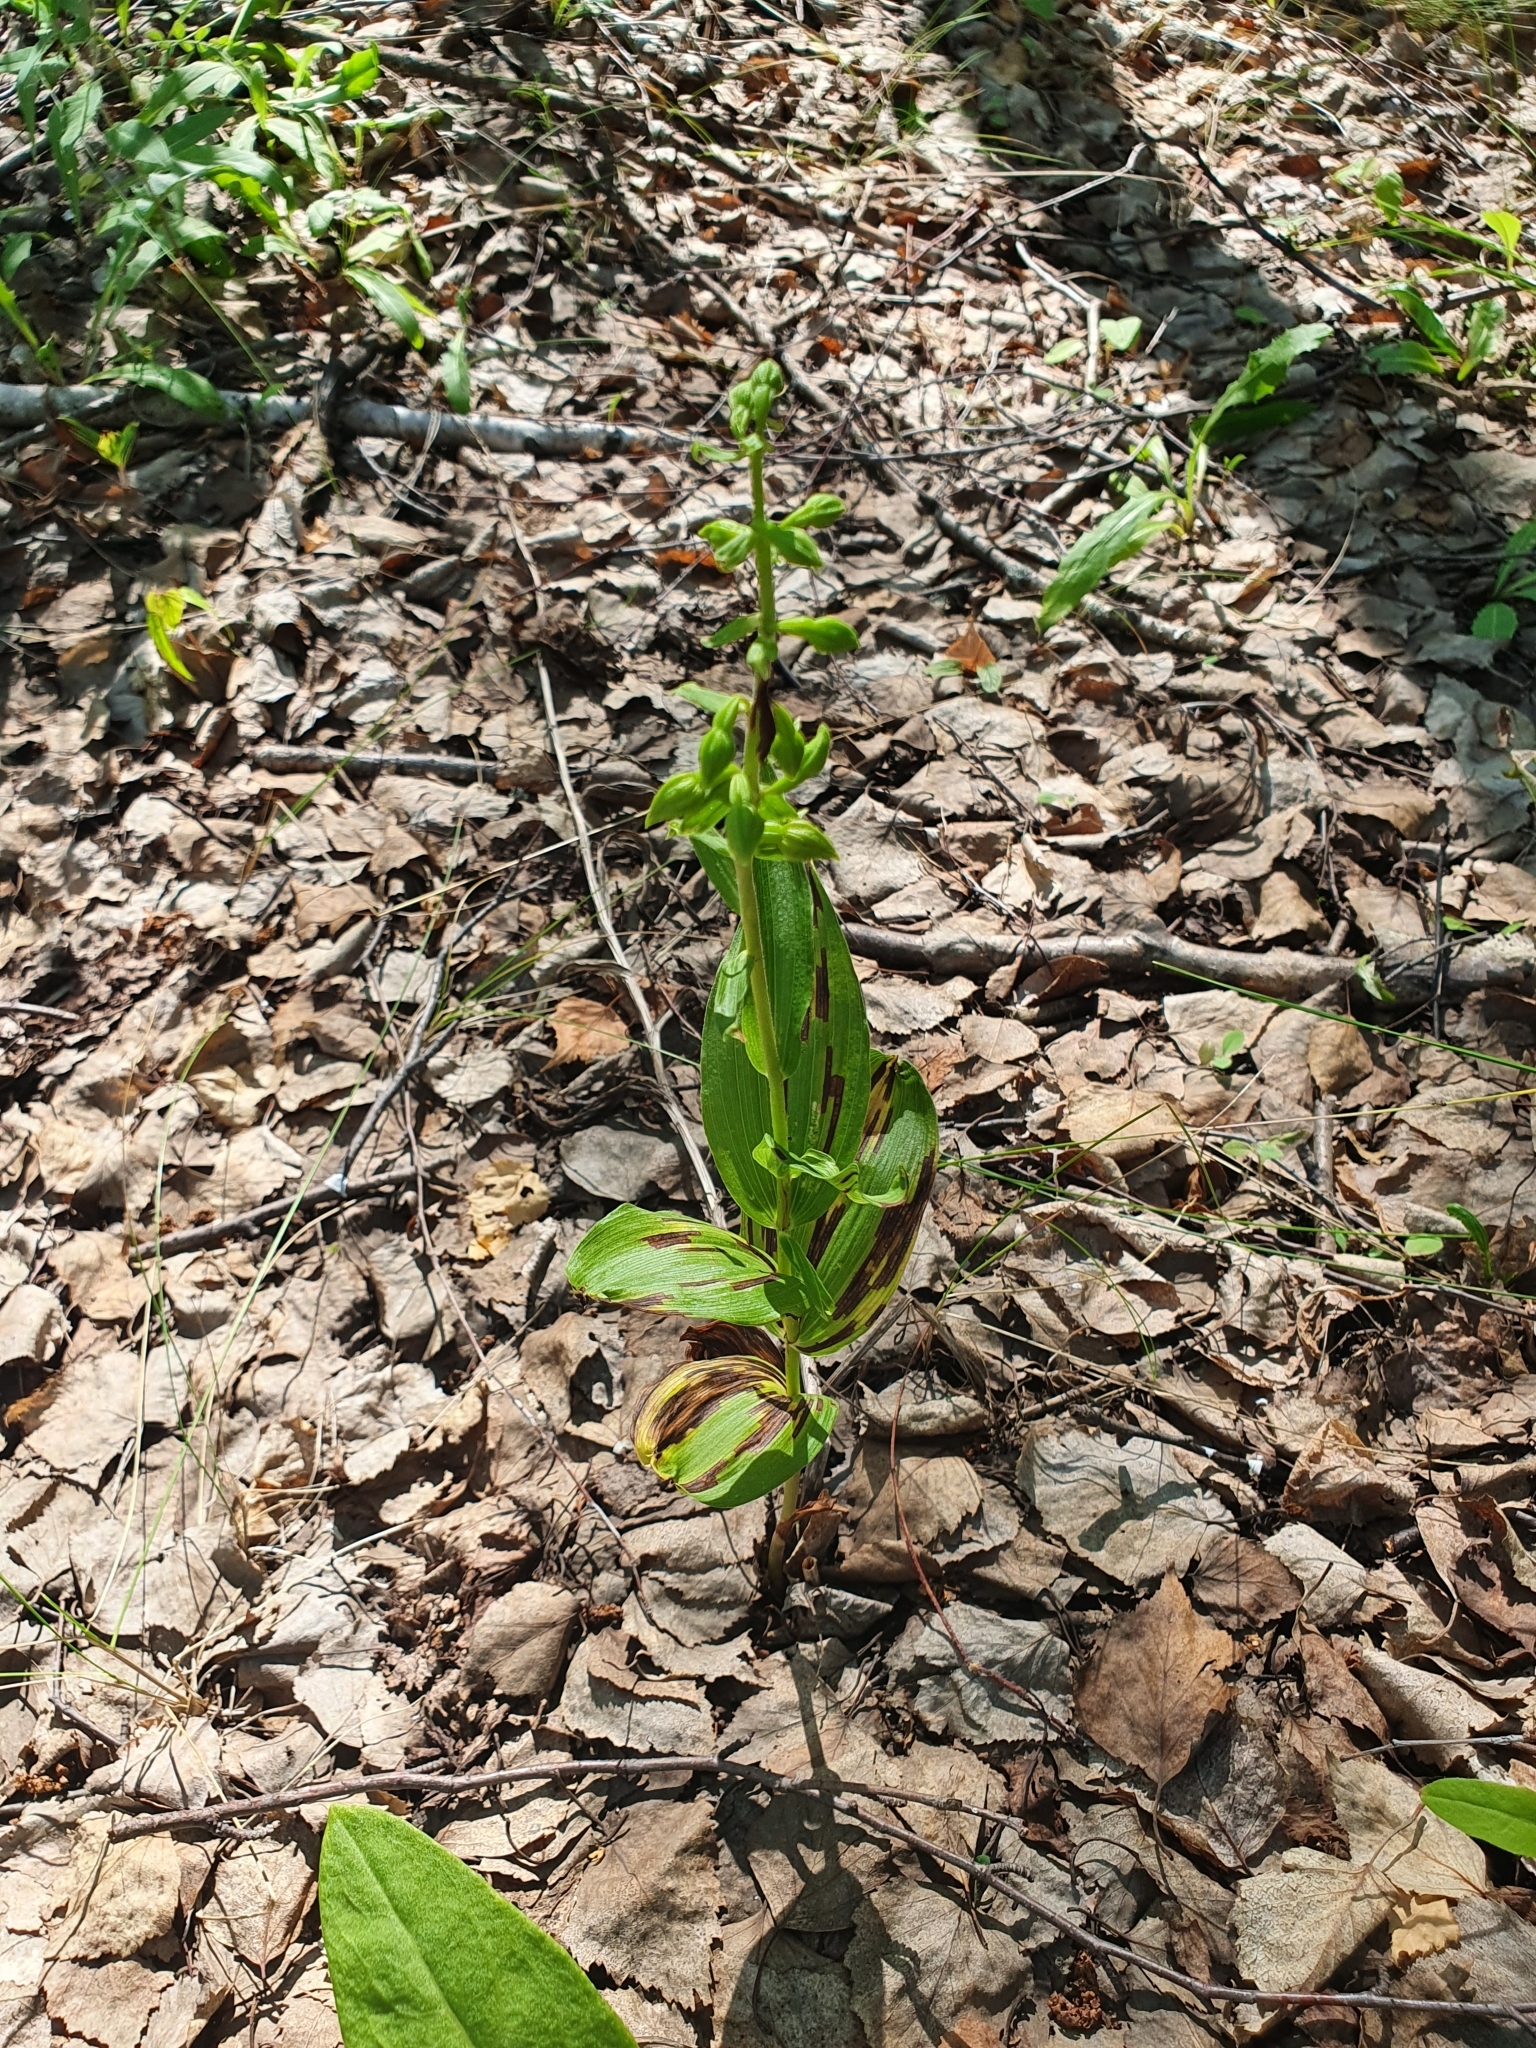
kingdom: Plantae
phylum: Tracheophyta
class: Liliopsida
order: Asparagales
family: Orchidaceae
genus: Epipactis
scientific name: Epipactis helleborine
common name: Broad-leaved helleborine
